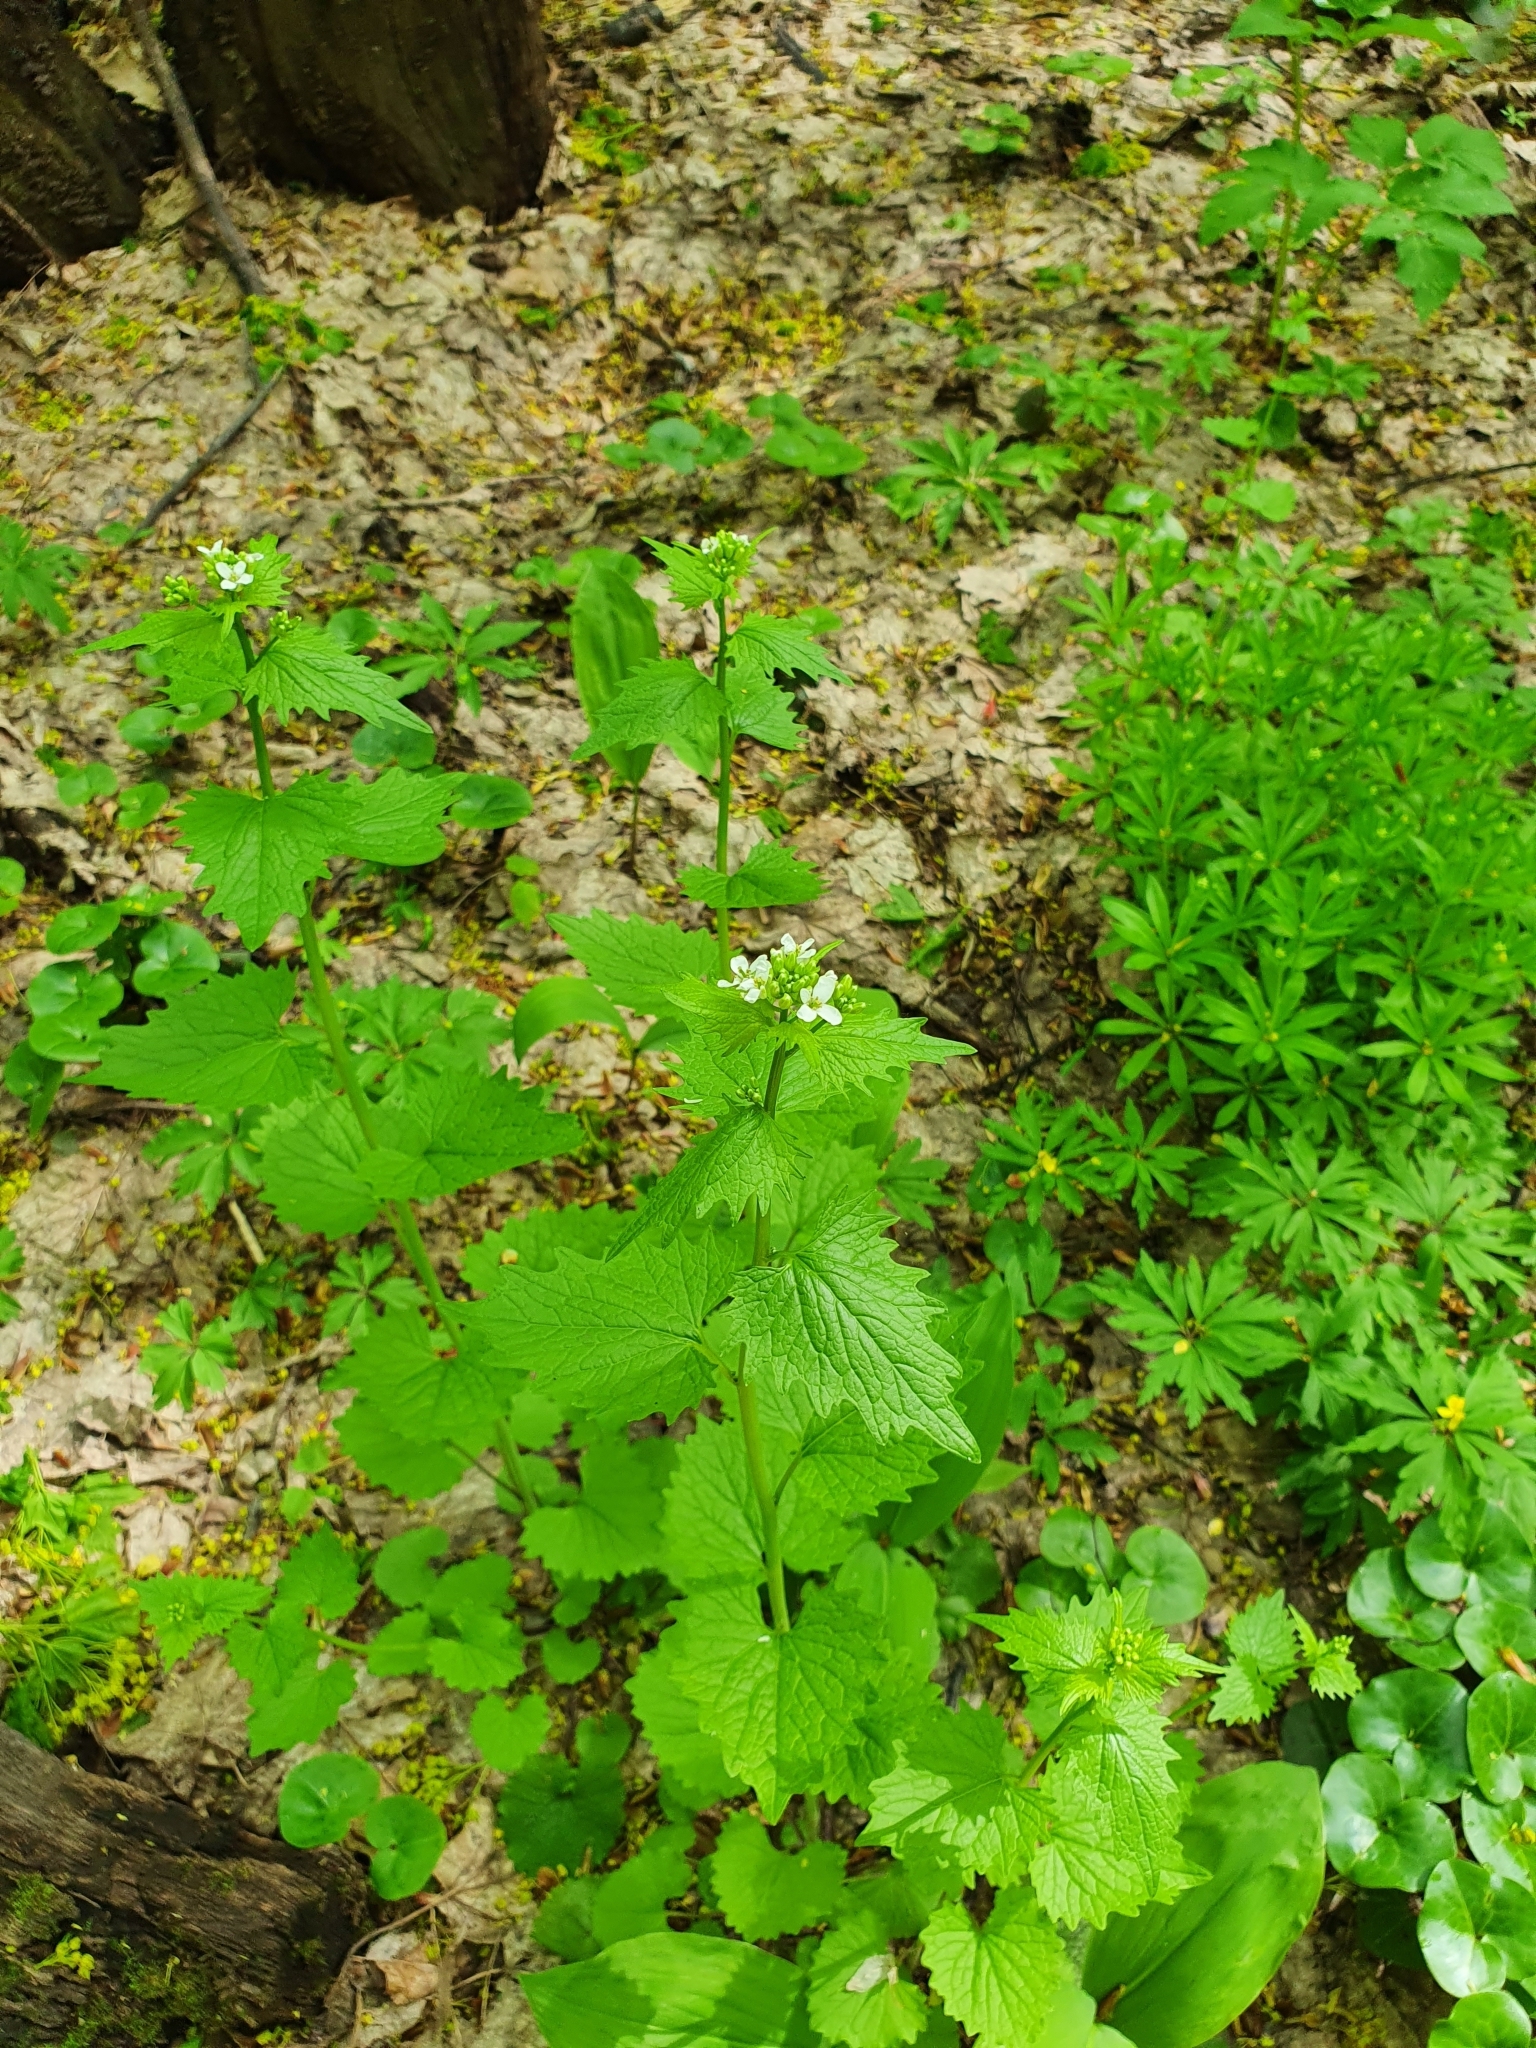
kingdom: Plantae
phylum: Tracheophyta
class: Magnoliopsida
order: Brassicales
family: Brassicaceae
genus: Alliaria
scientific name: Alliaria petiolata
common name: Garlic mustard
